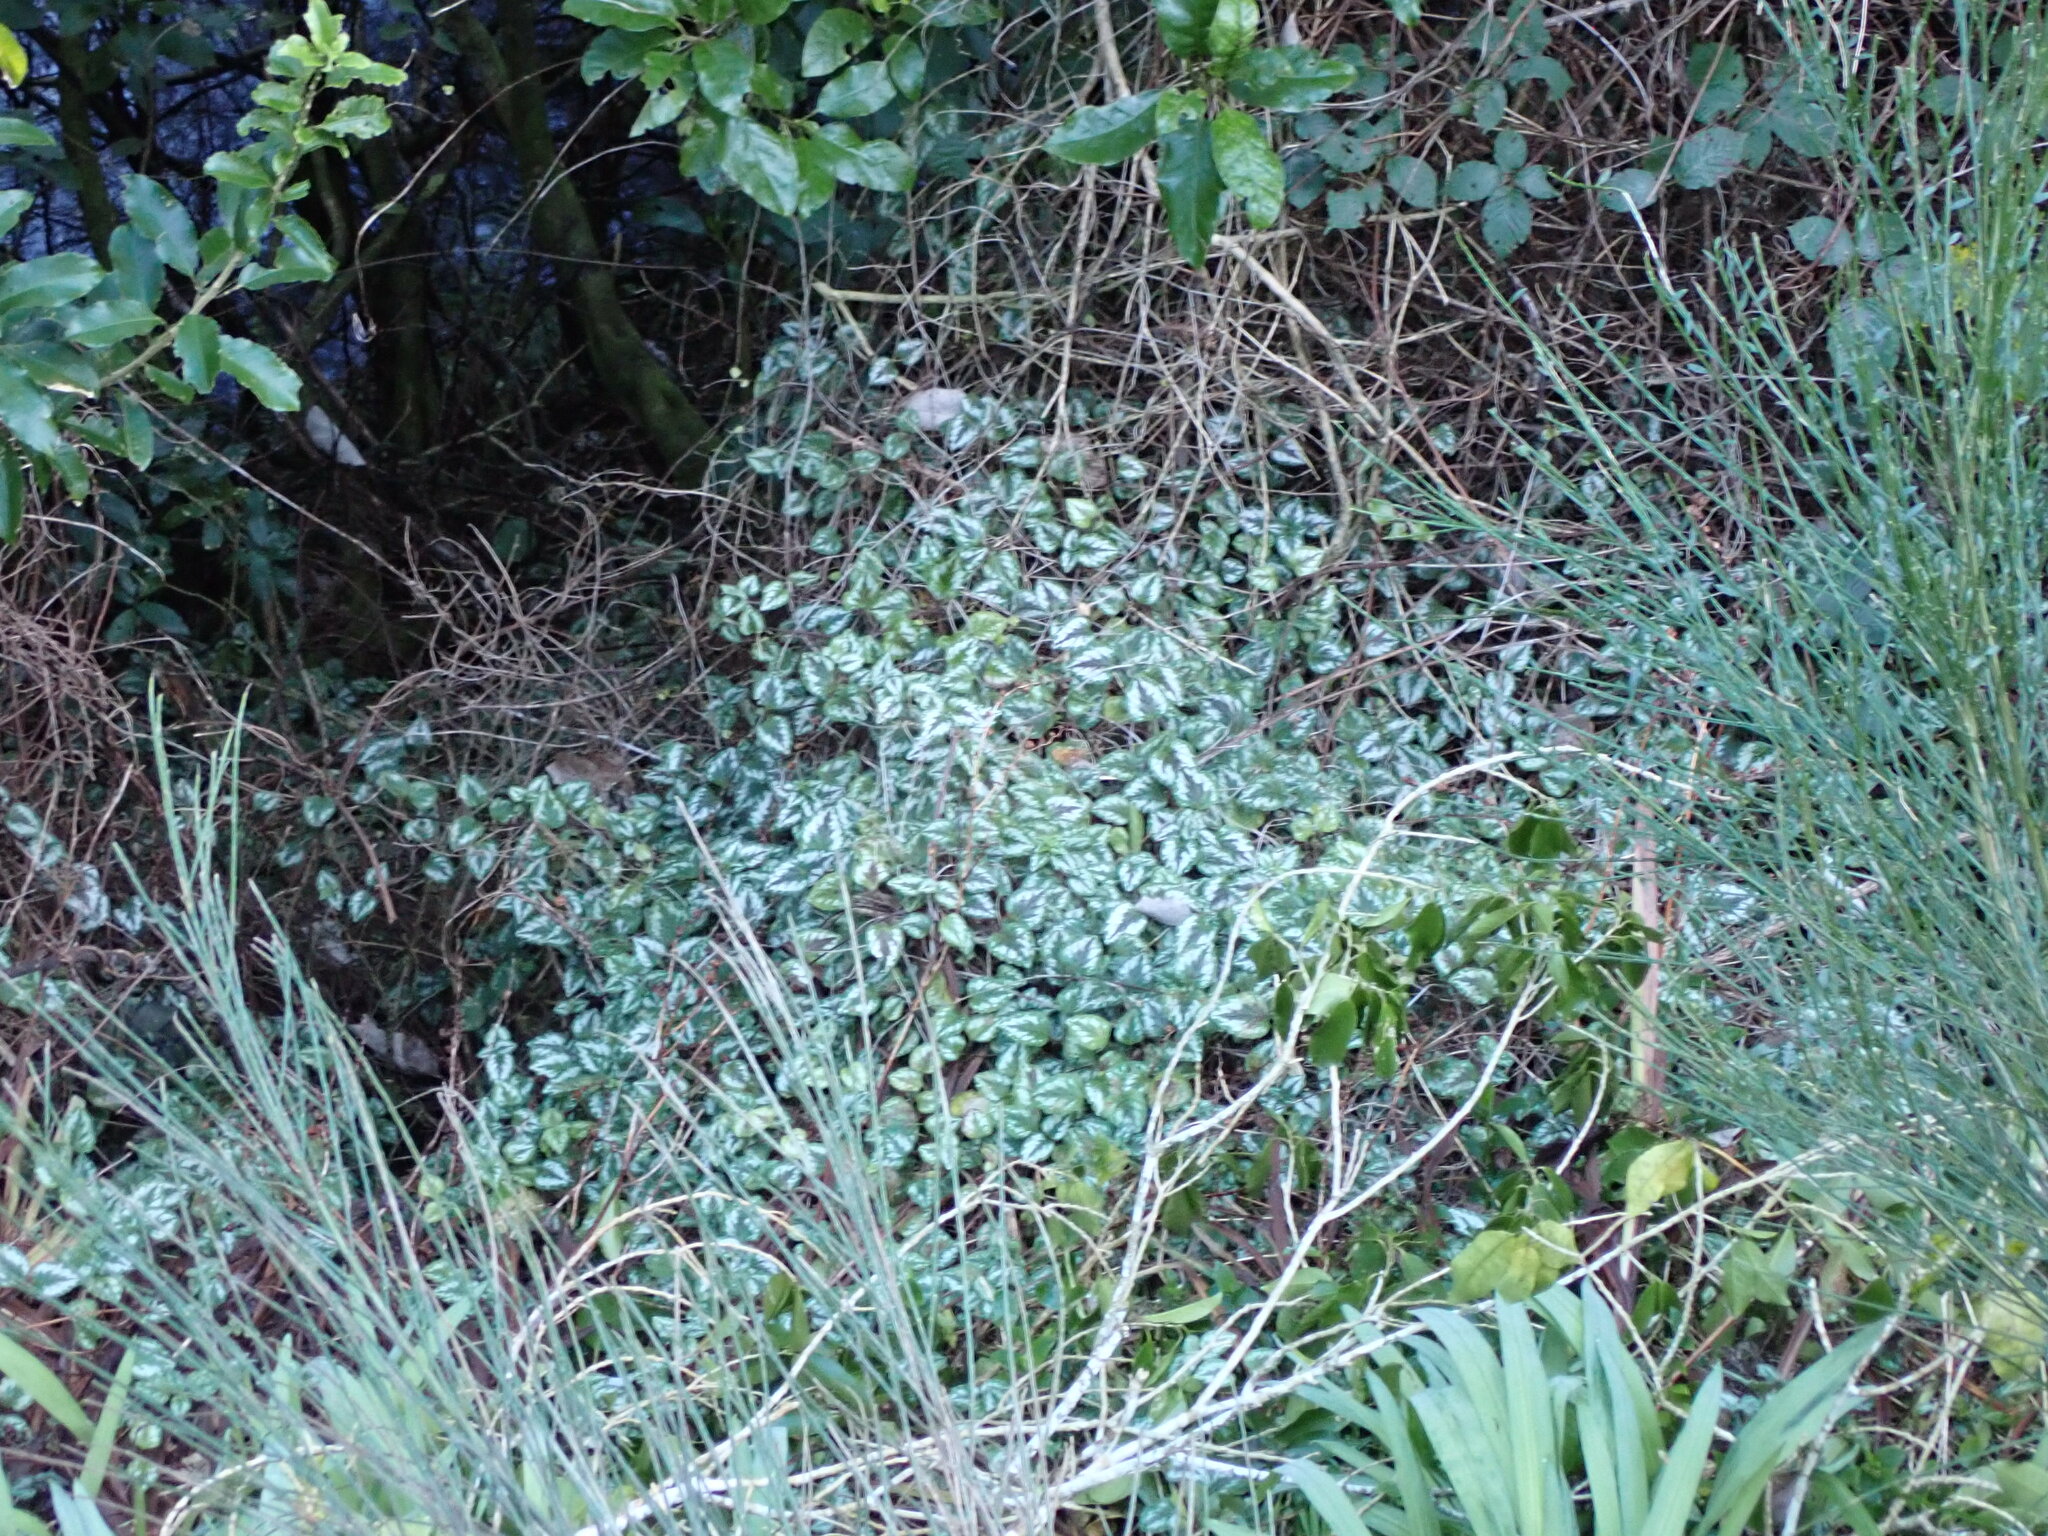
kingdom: Plantae
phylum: Tracheophyta
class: Magnoliopsida
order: Lamiales
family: Lamiaceae
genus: Lamium
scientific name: Lamium galeobdolon
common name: Yellow archangel
